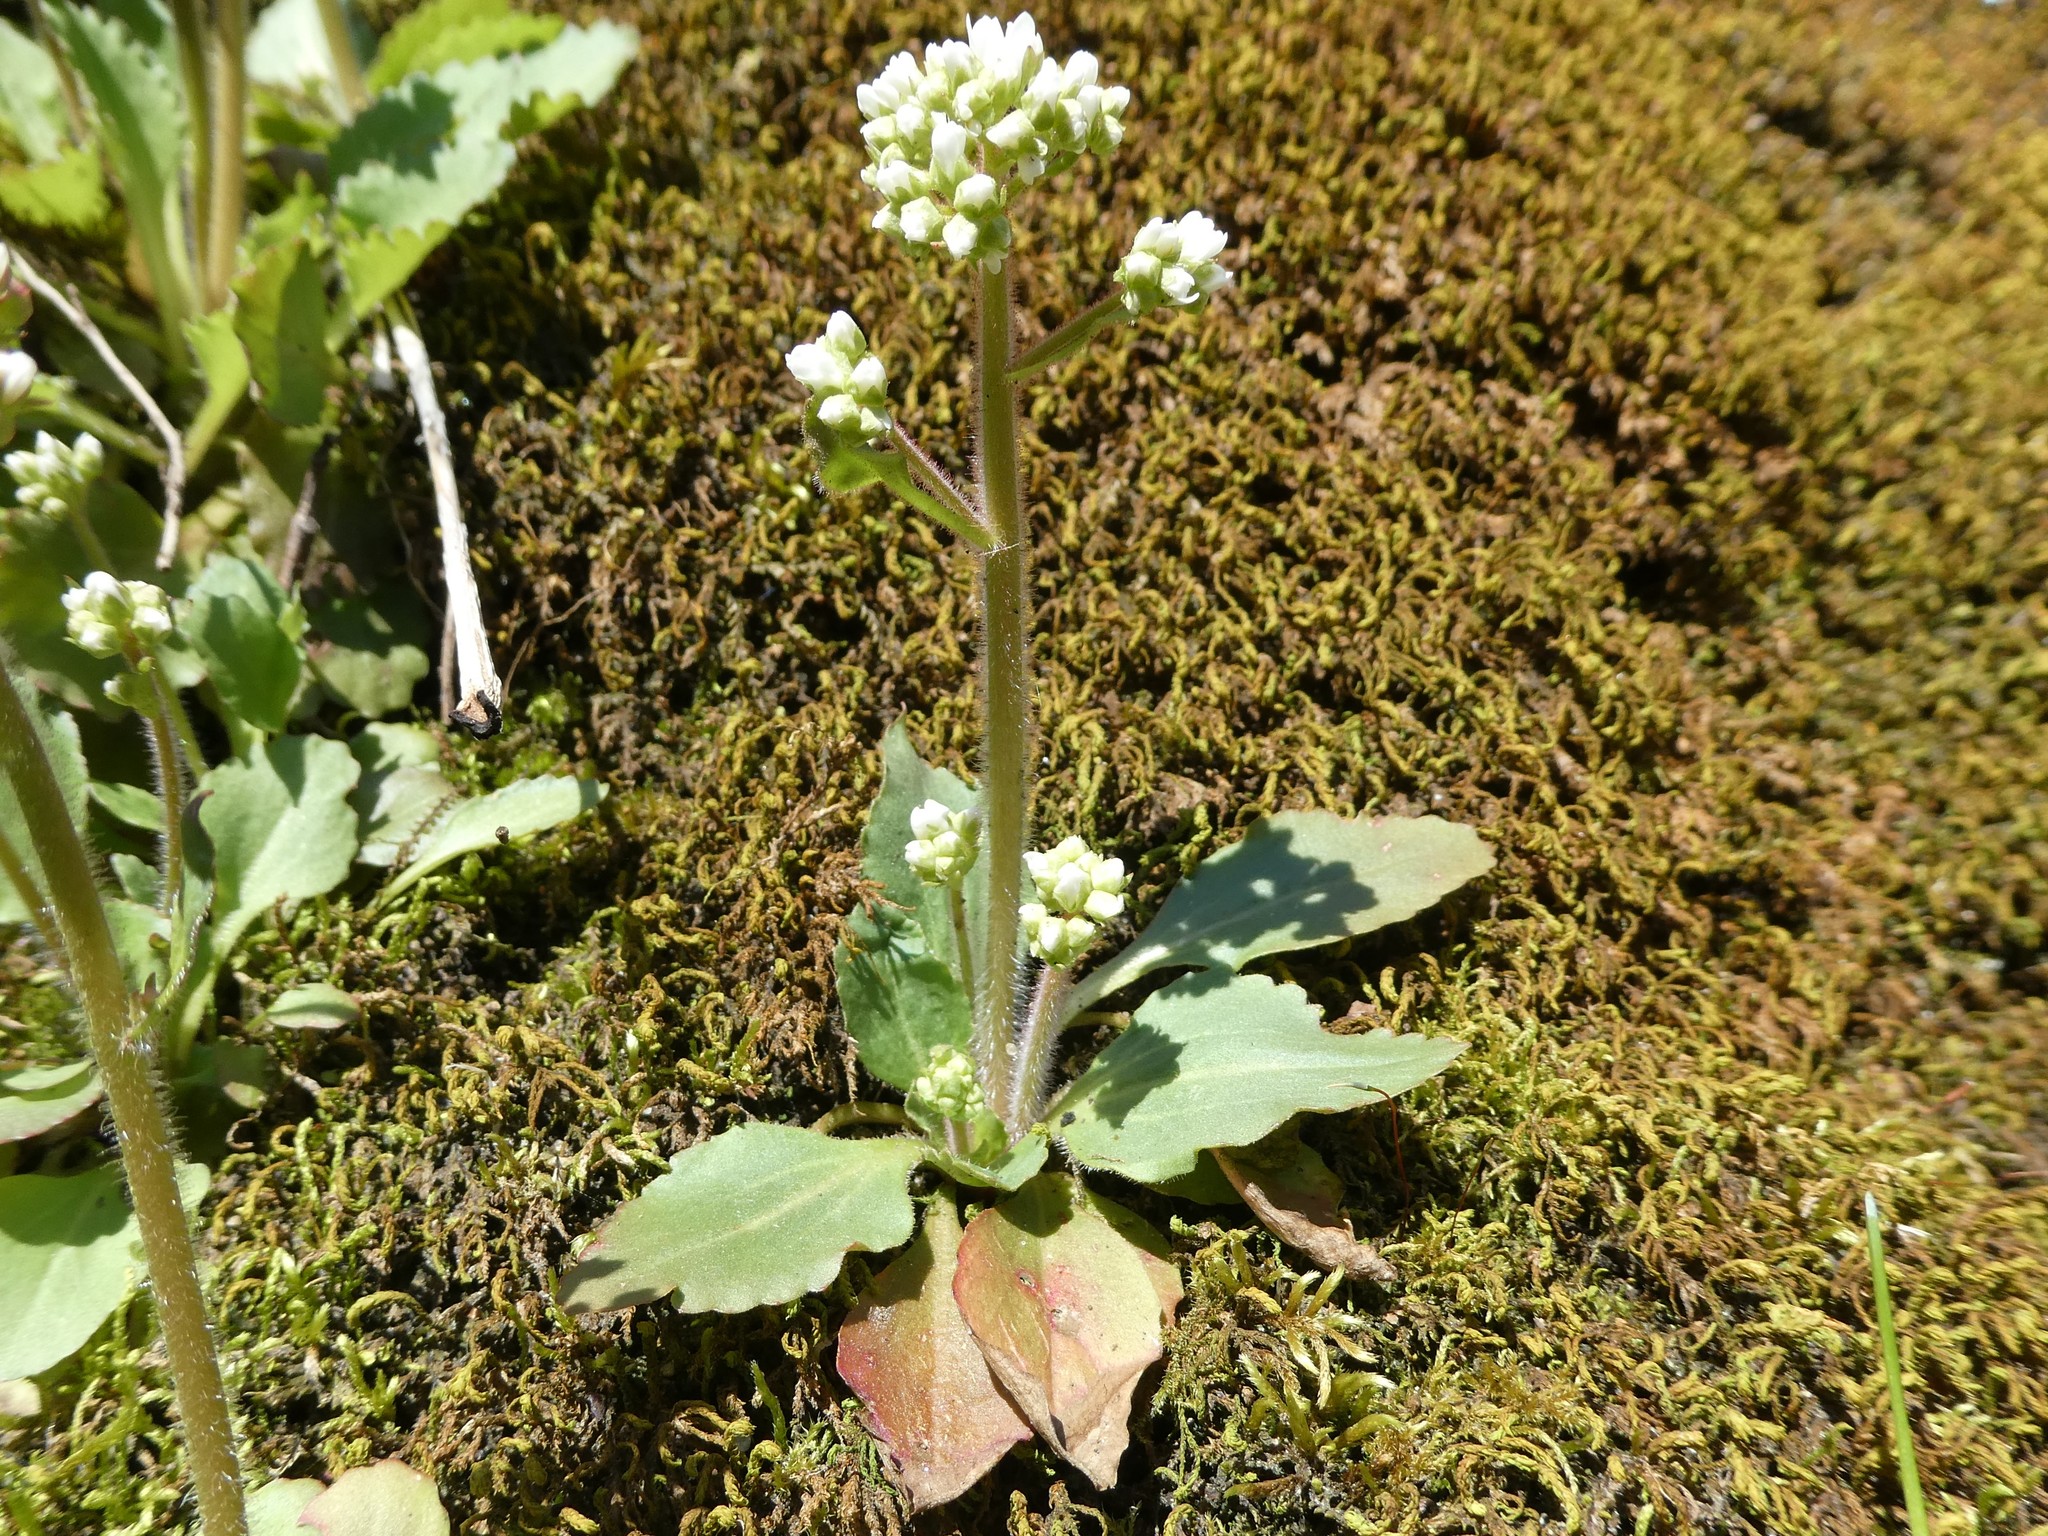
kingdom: Plantae
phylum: Tracheophyta
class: Magnoliopsida
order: Saxifragales
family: Saxifragaceae
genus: Micranthes
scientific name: Micranthes virginiensis
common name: Early saxifrage
